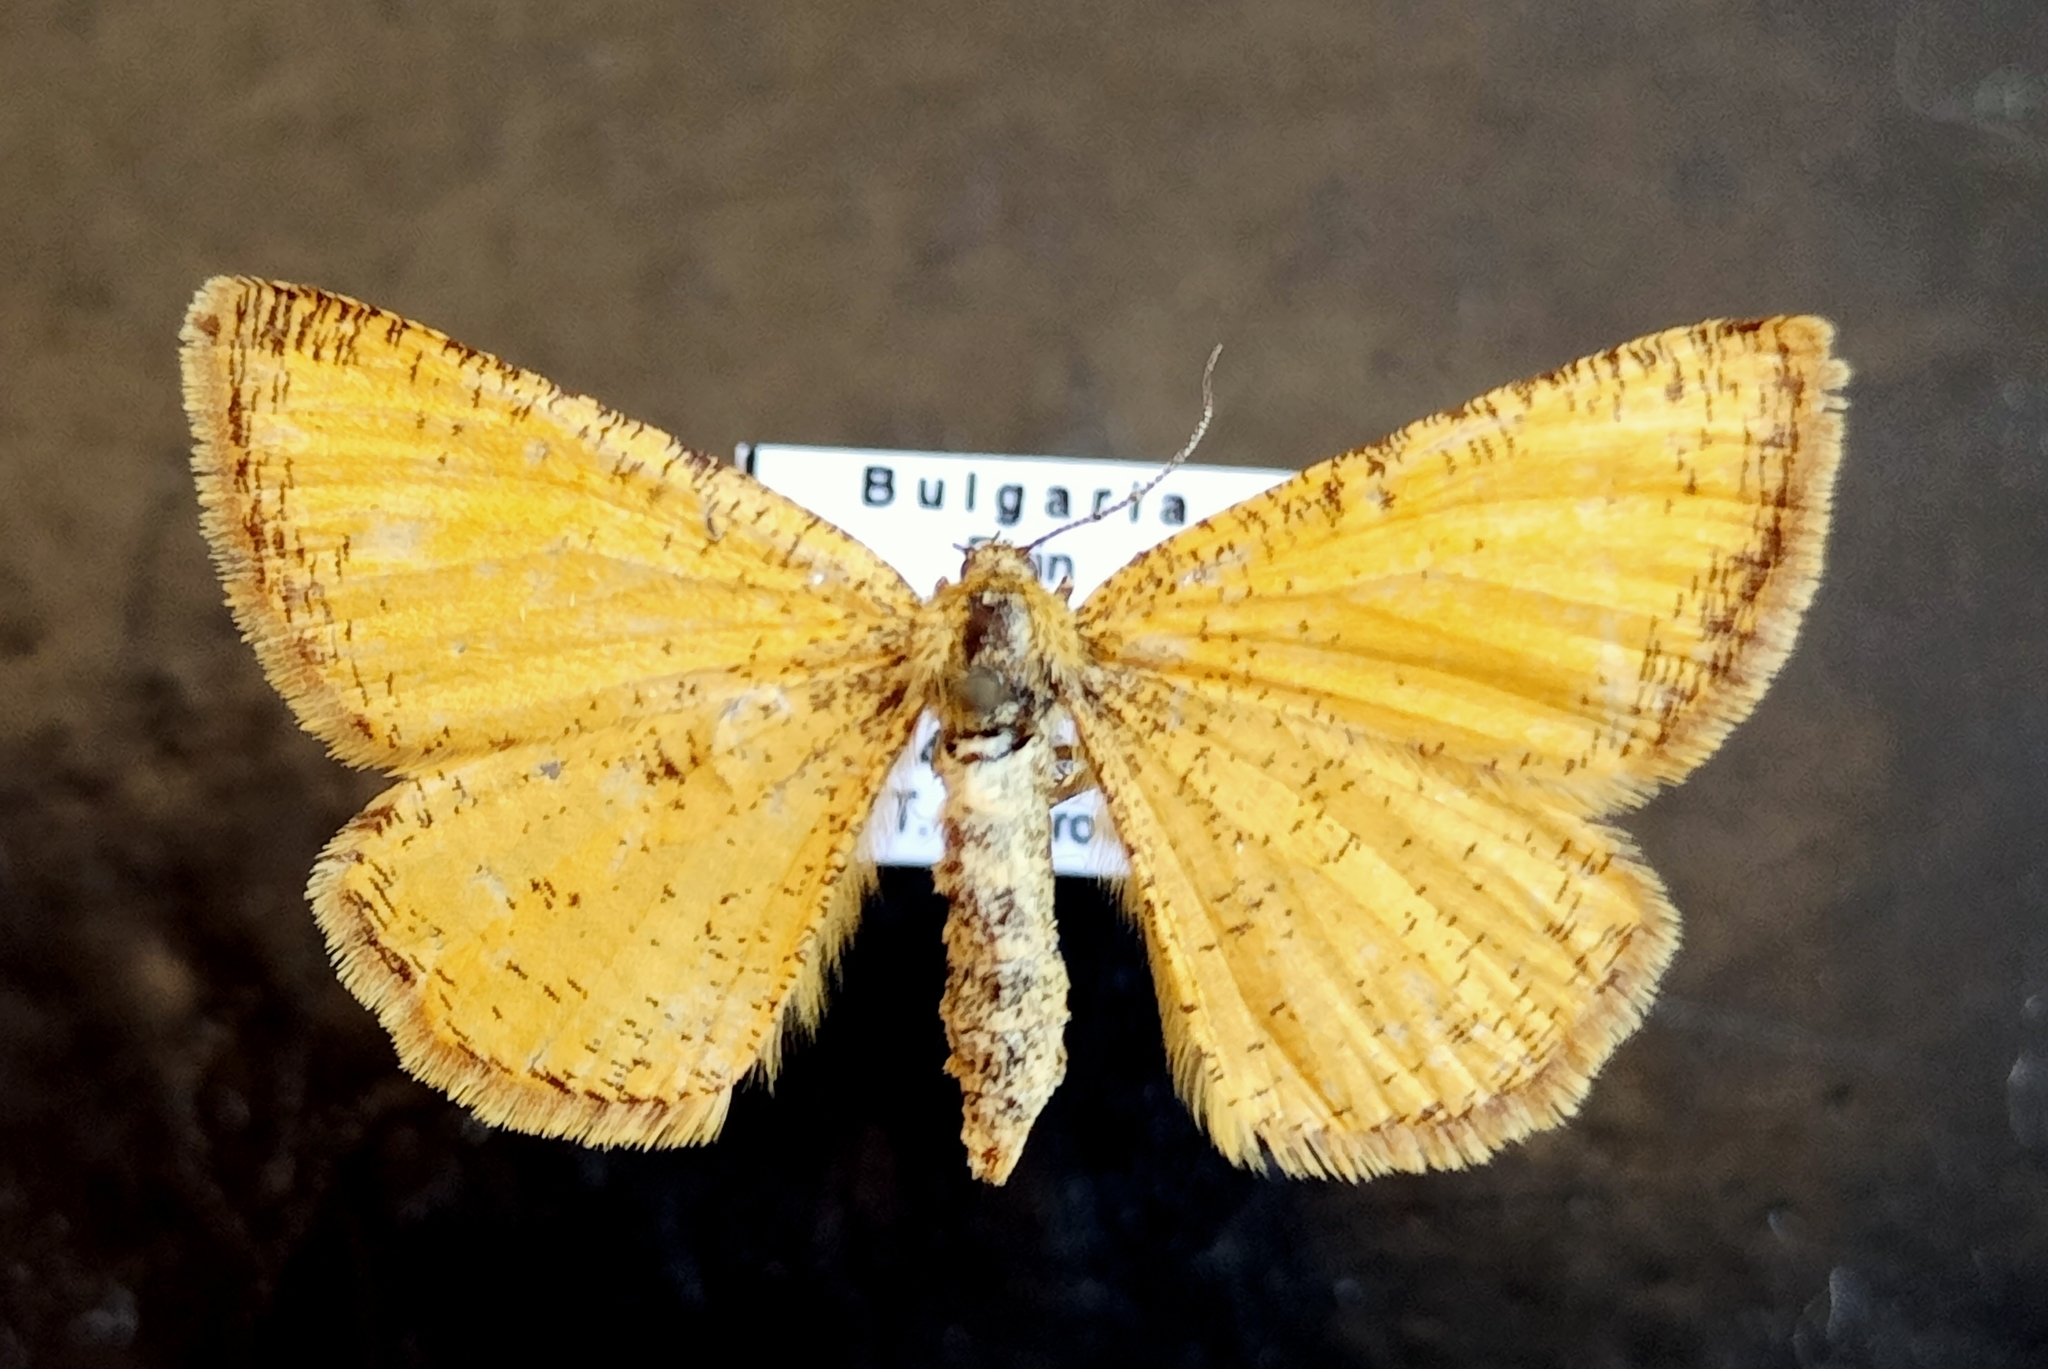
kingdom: Animalia
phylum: Arthropoda
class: Insecta
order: Lepidoptera
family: Geometridae
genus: Isturgia
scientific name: Isturgia roraria
